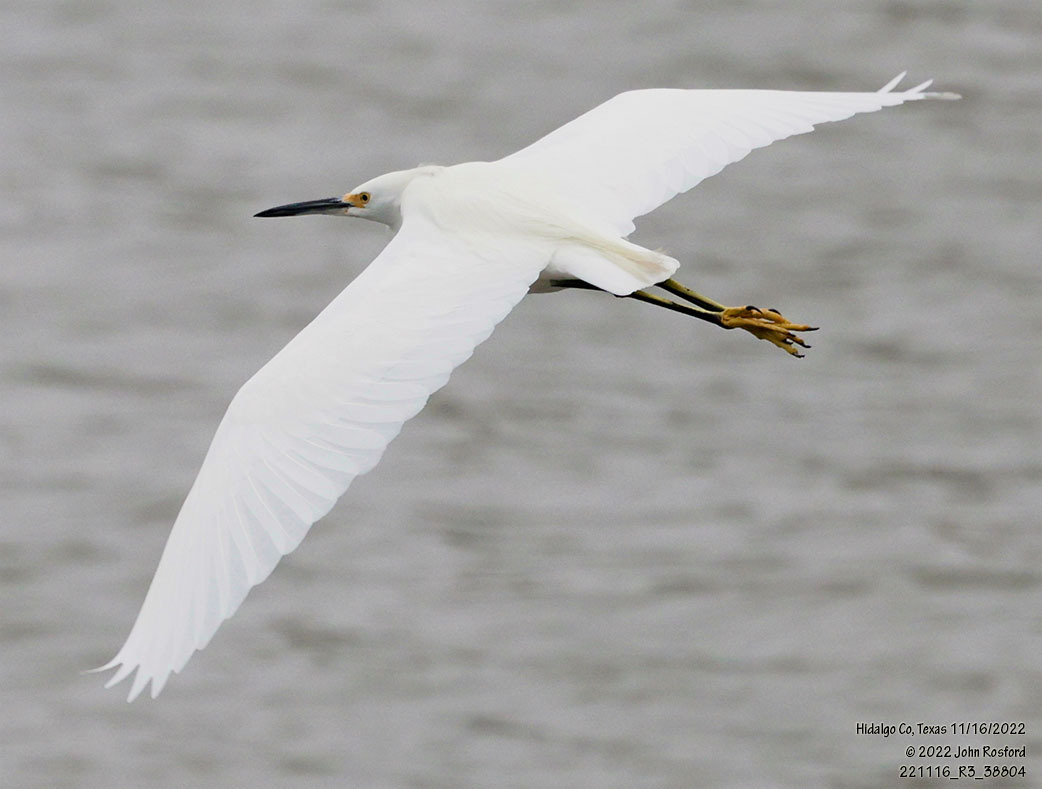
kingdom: Animalia
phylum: Chordata
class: Aves
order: Pelecaniformes
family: Ardeidae
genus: Egretta
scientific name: Egretta thula
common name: Snowy egret
